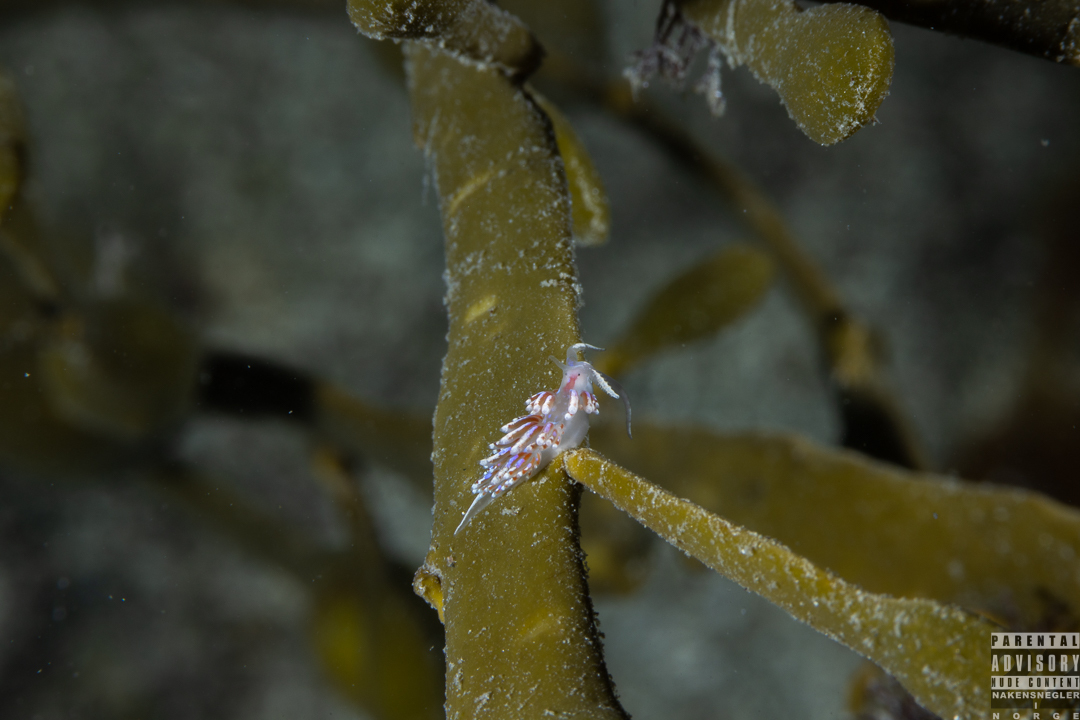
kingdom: Animalia
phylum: Mollusca
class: Gastropoda
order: Nudibranchia
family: Facelinidae
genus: Facelina
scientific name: Facelina auriculata
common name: Slender facelina
